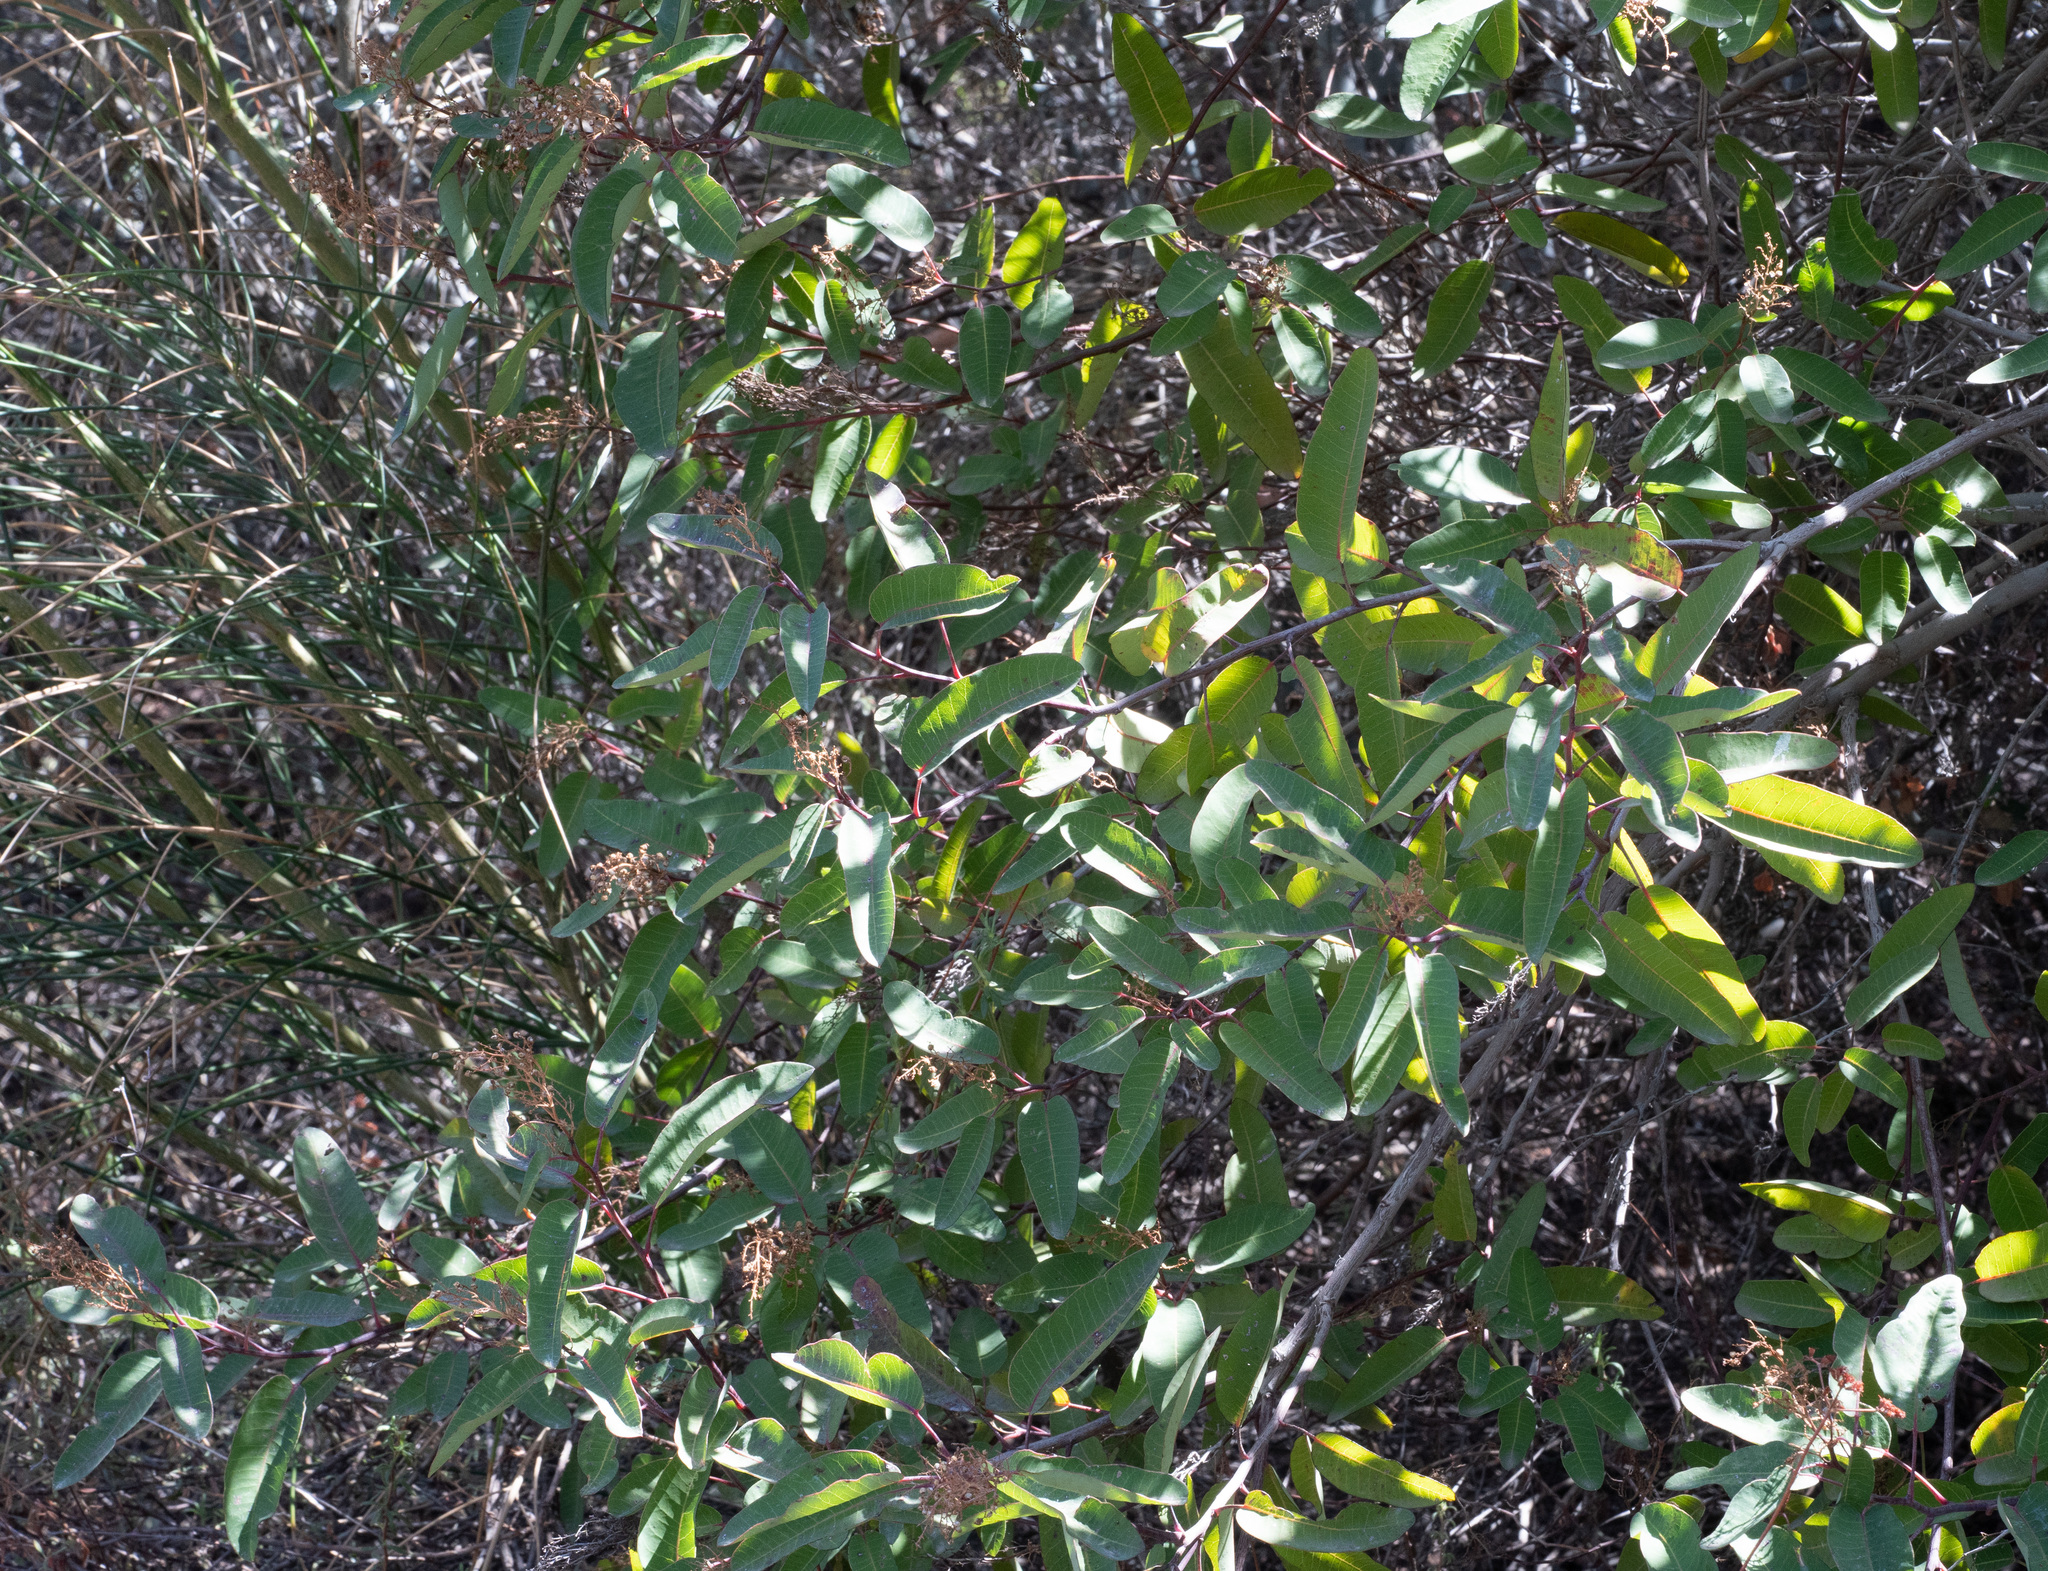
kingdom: Plantae
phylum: Tracheophyta
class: Magnoliopsida
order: Sapindales
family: Anacardiaceae
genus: Malosma
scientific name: Malosma laurina
